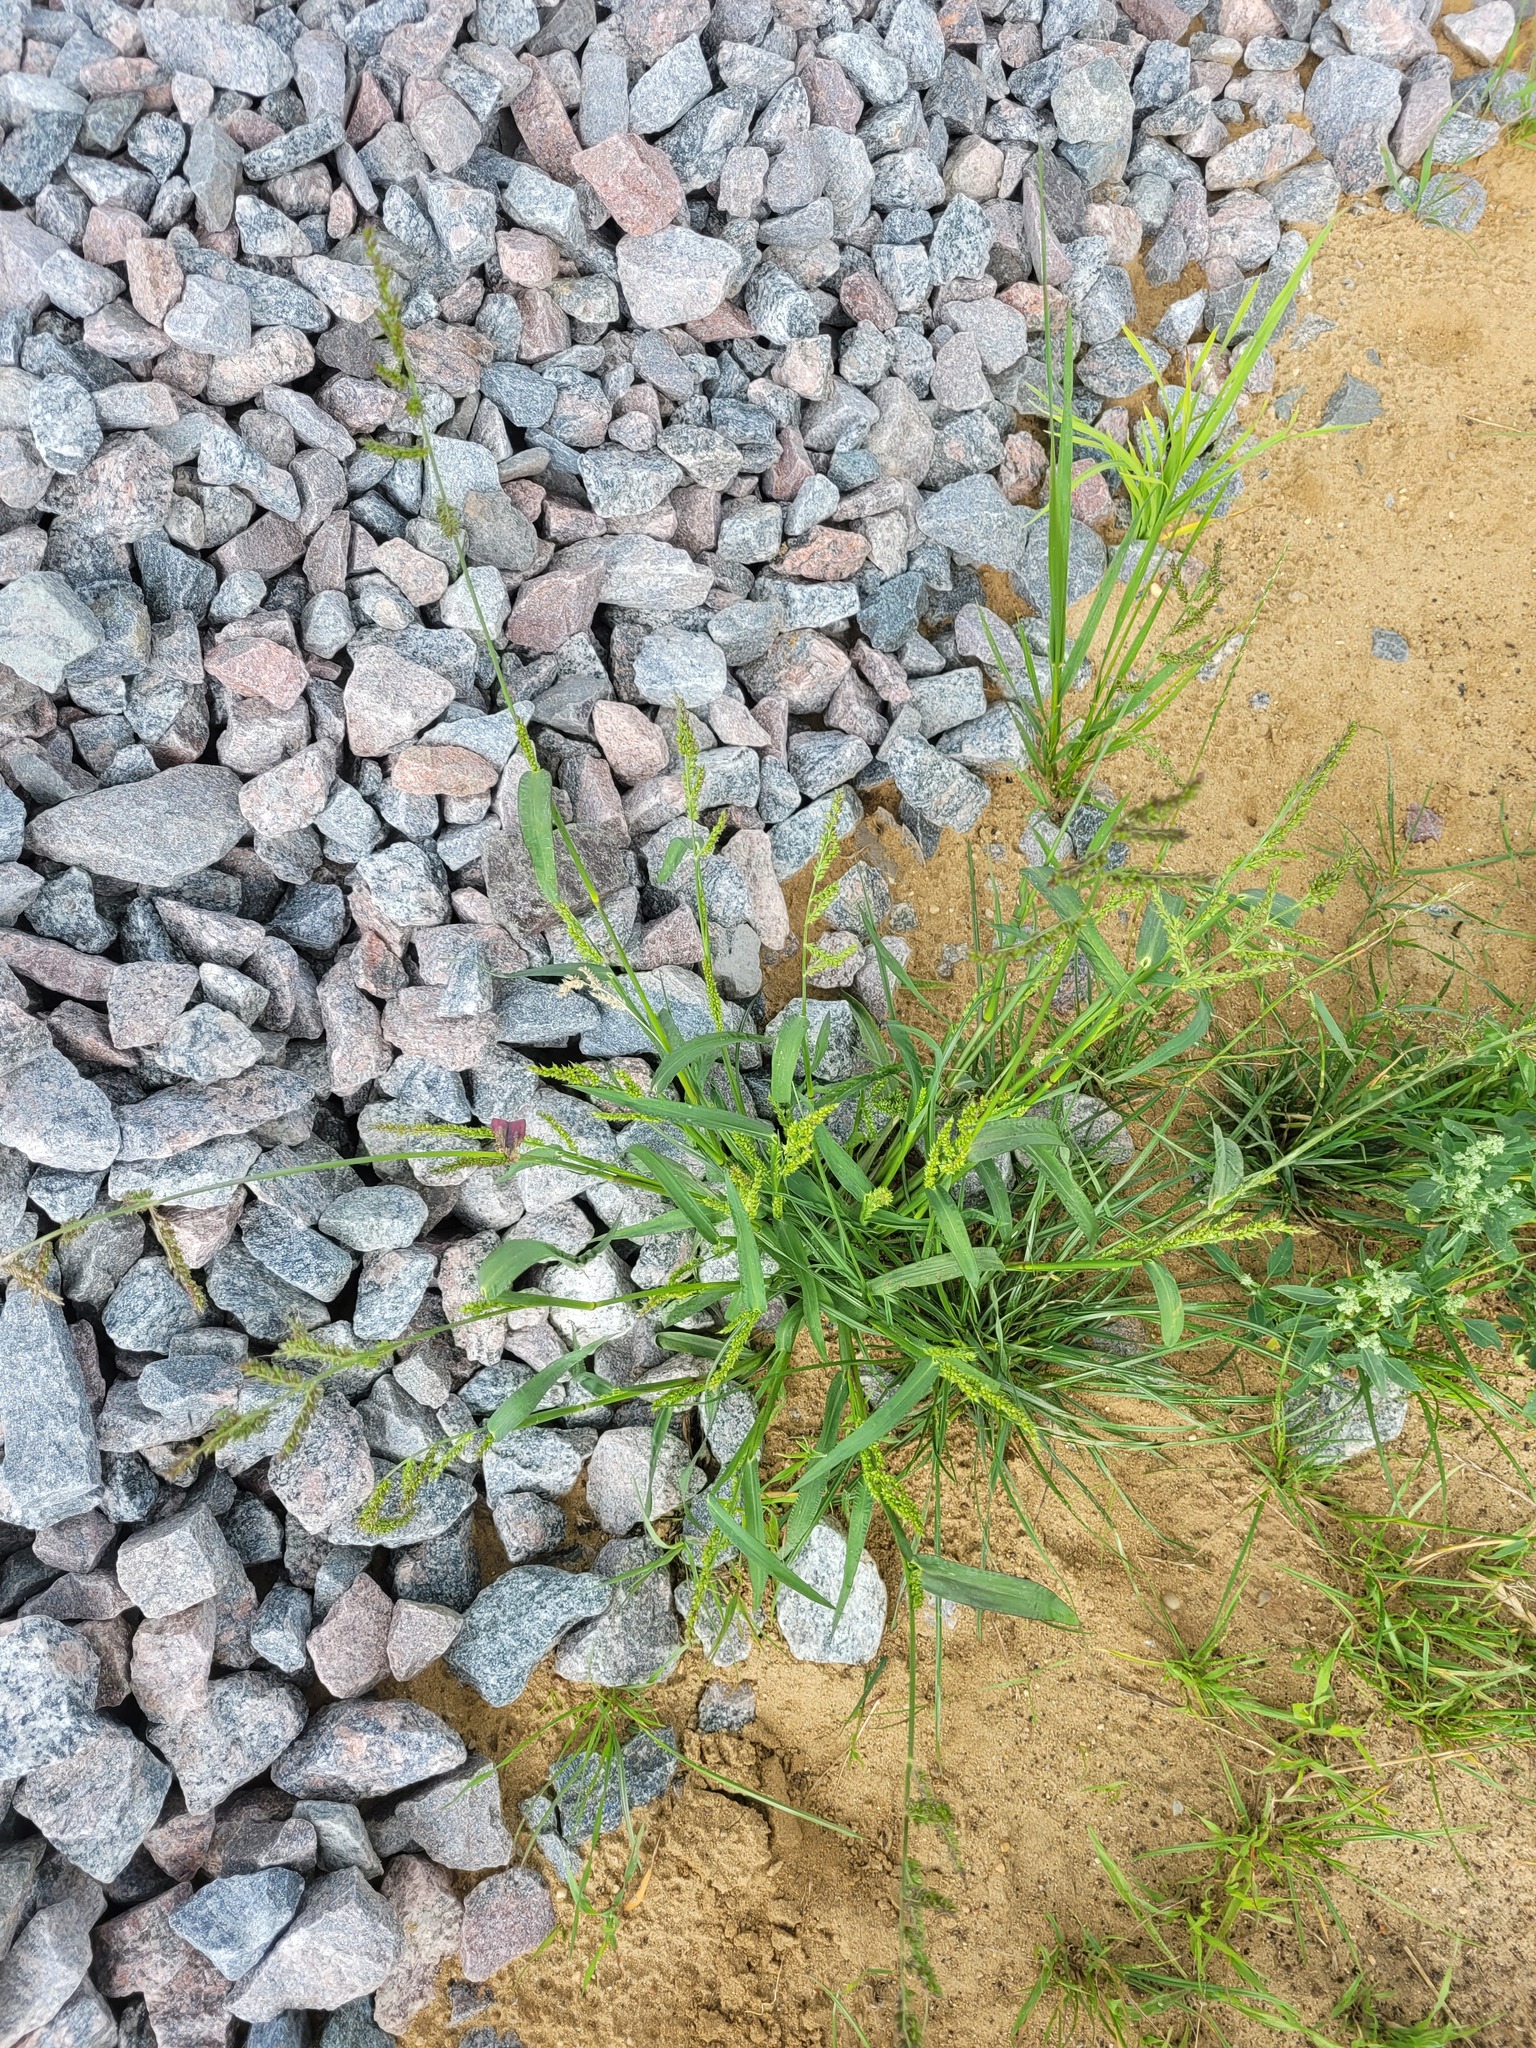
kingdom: Plantae
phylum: Tracheophyta
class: Liliopsida
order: Poales
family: Poaceae
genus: Echinochloa
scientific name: Echinochloa crus-galli
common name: Cockspur
